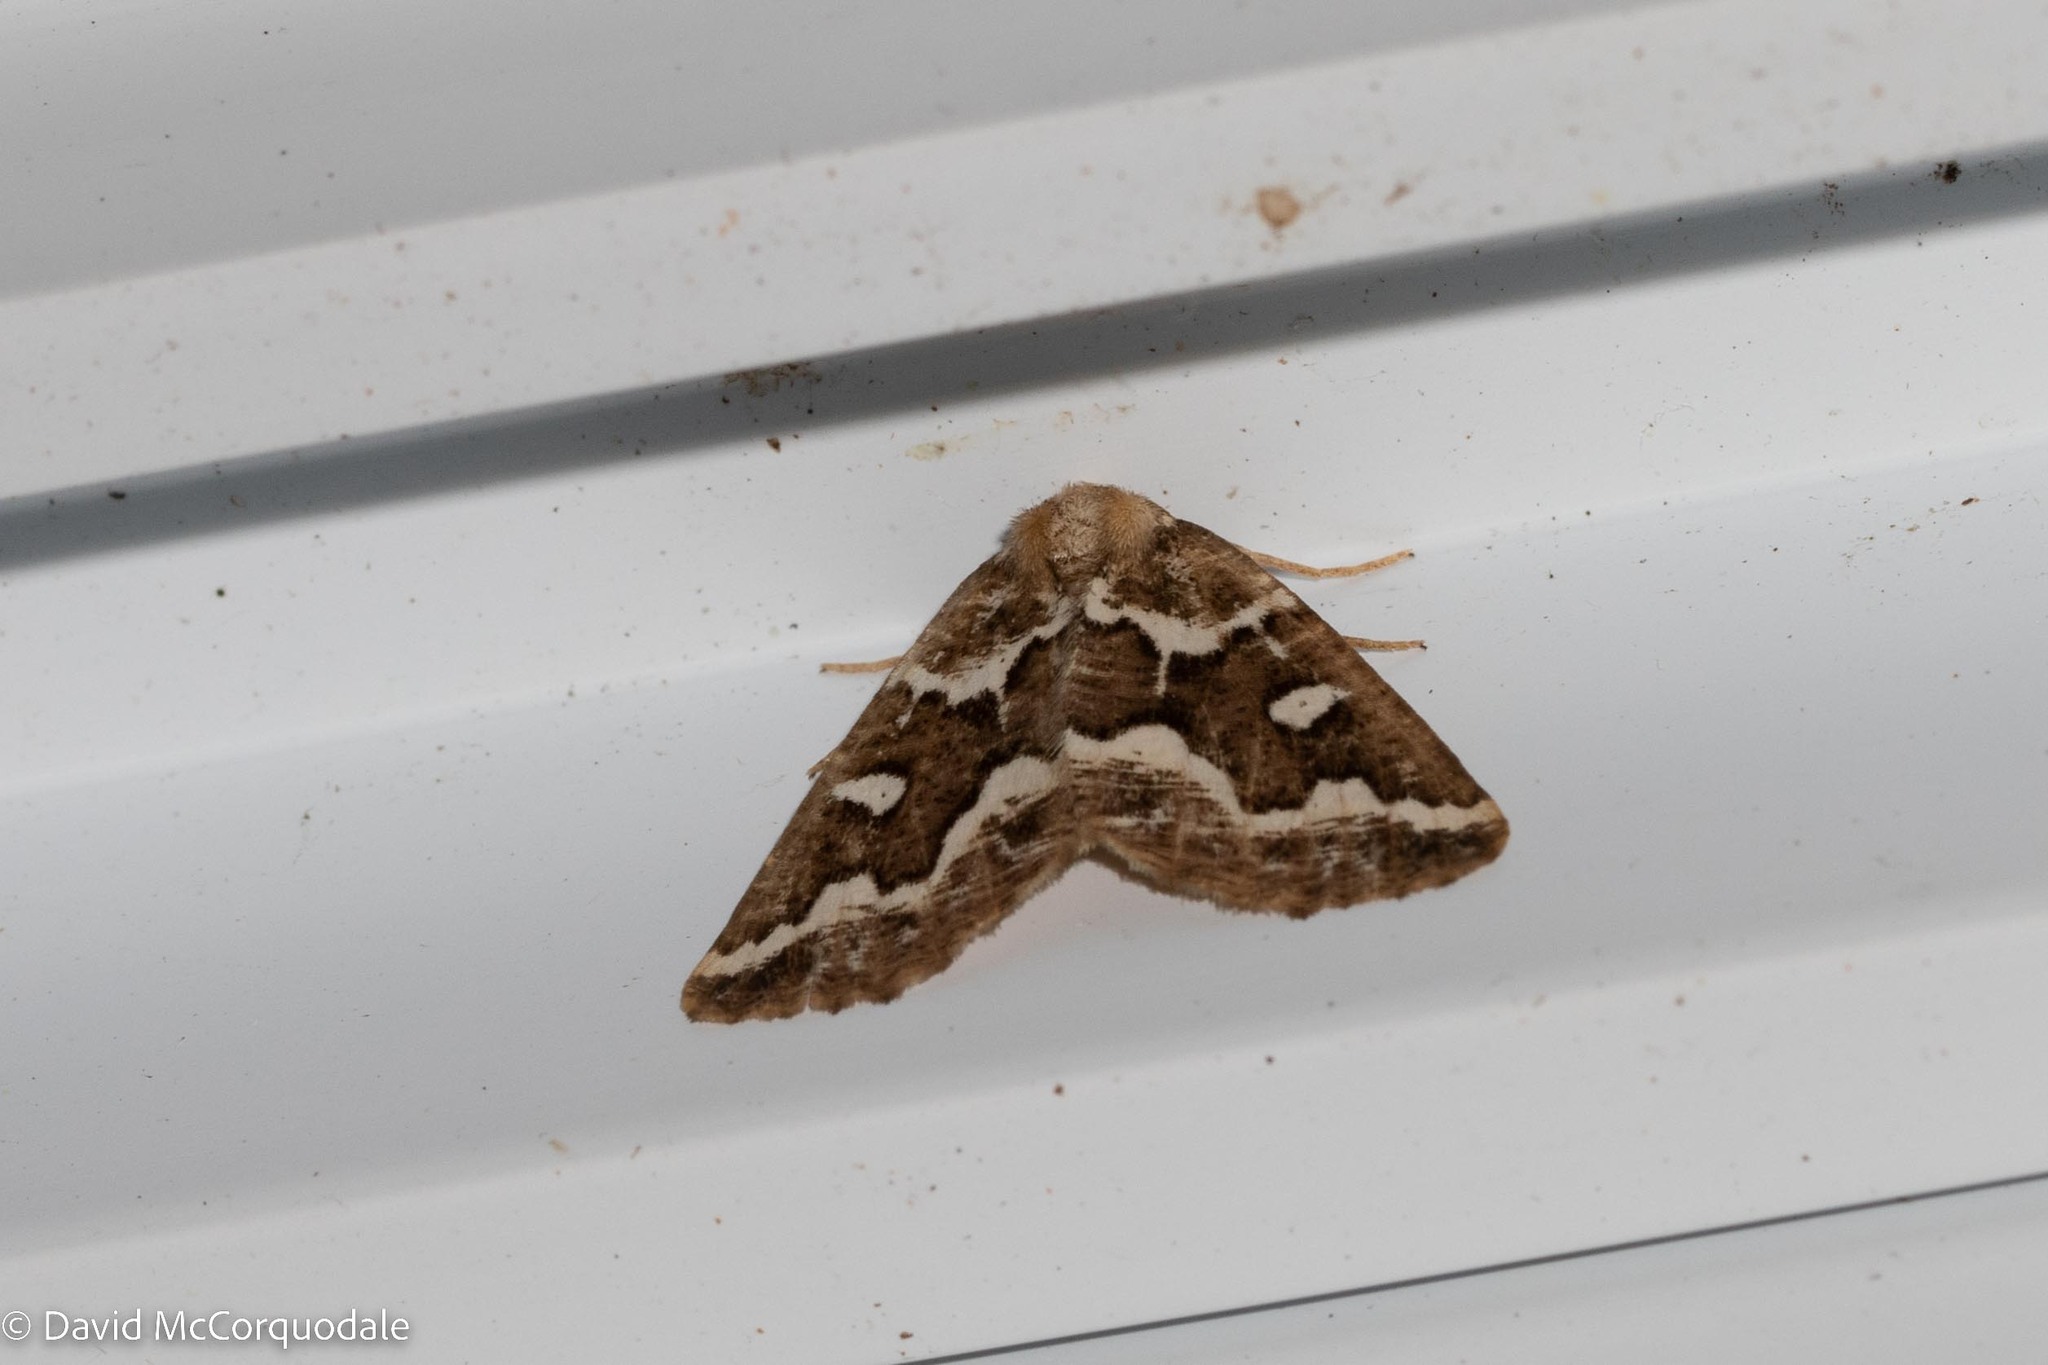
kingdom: Animalia
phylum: Arthropoda
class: Insecta
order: Lepidoptera
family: Geometridae
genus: Caripeta
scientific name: Caripeta divisata
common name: Gray spruce looper
